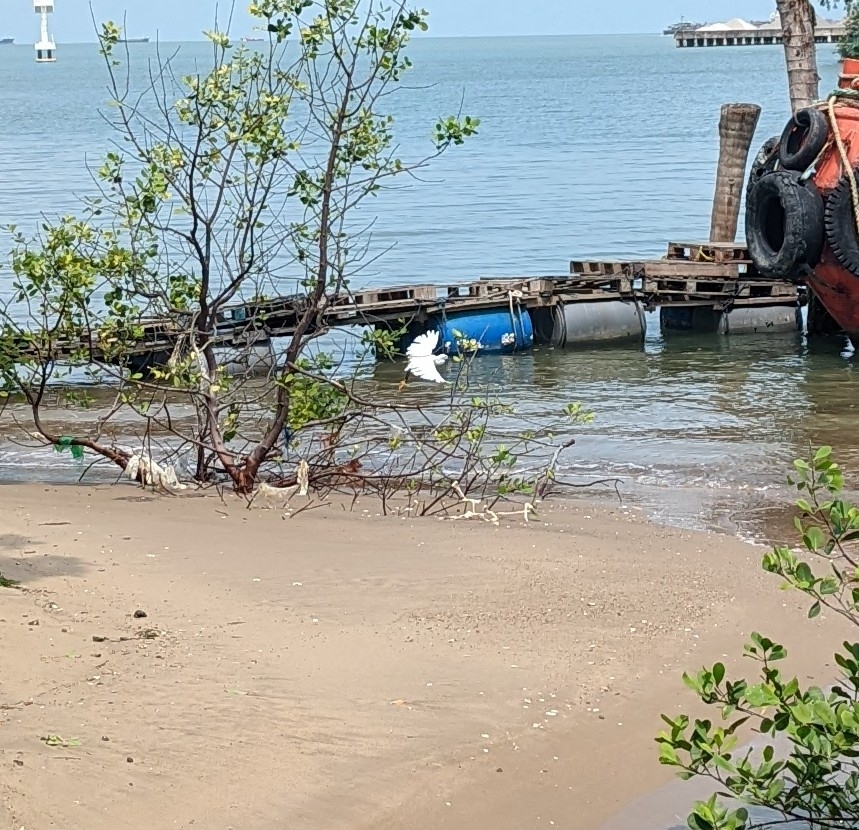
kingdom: Animalia
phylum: Chordata
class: Aves
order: Pelecaniformes
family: Ardeidae
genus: Egretta
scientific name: Egretta garzetta
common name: Little egret
